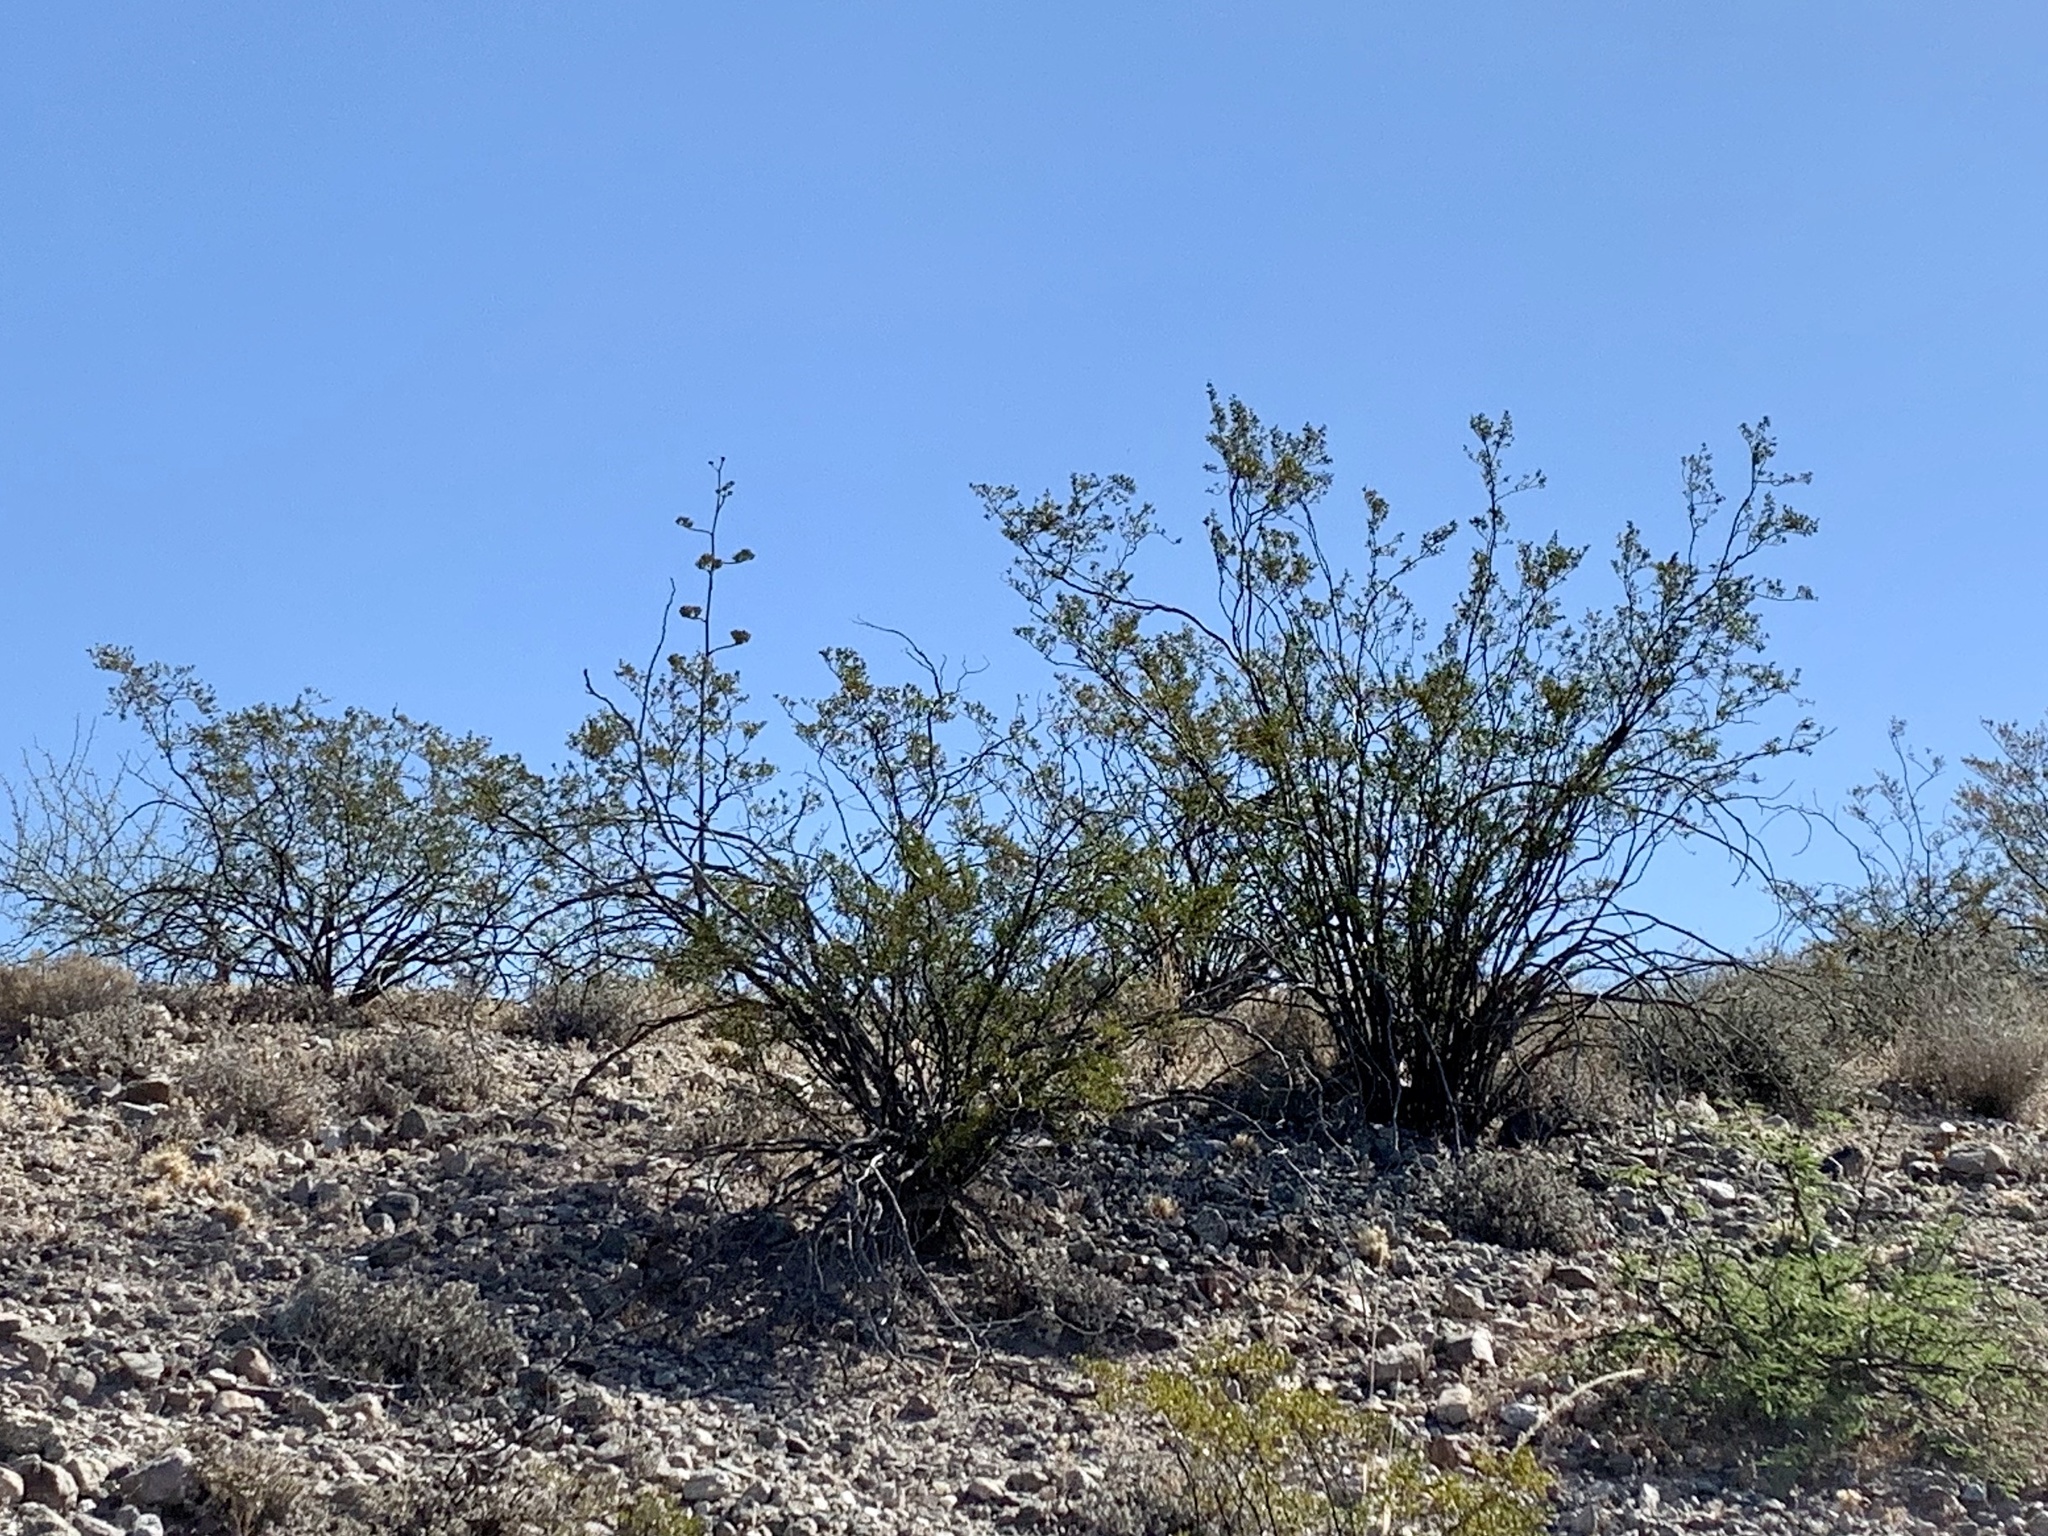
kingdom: Plantae
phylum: Tracheophyta
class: Magnoliopsida
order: Zygophyllales
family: Zygophyllaceae
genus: Larrea
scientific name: Larrea tridentata
